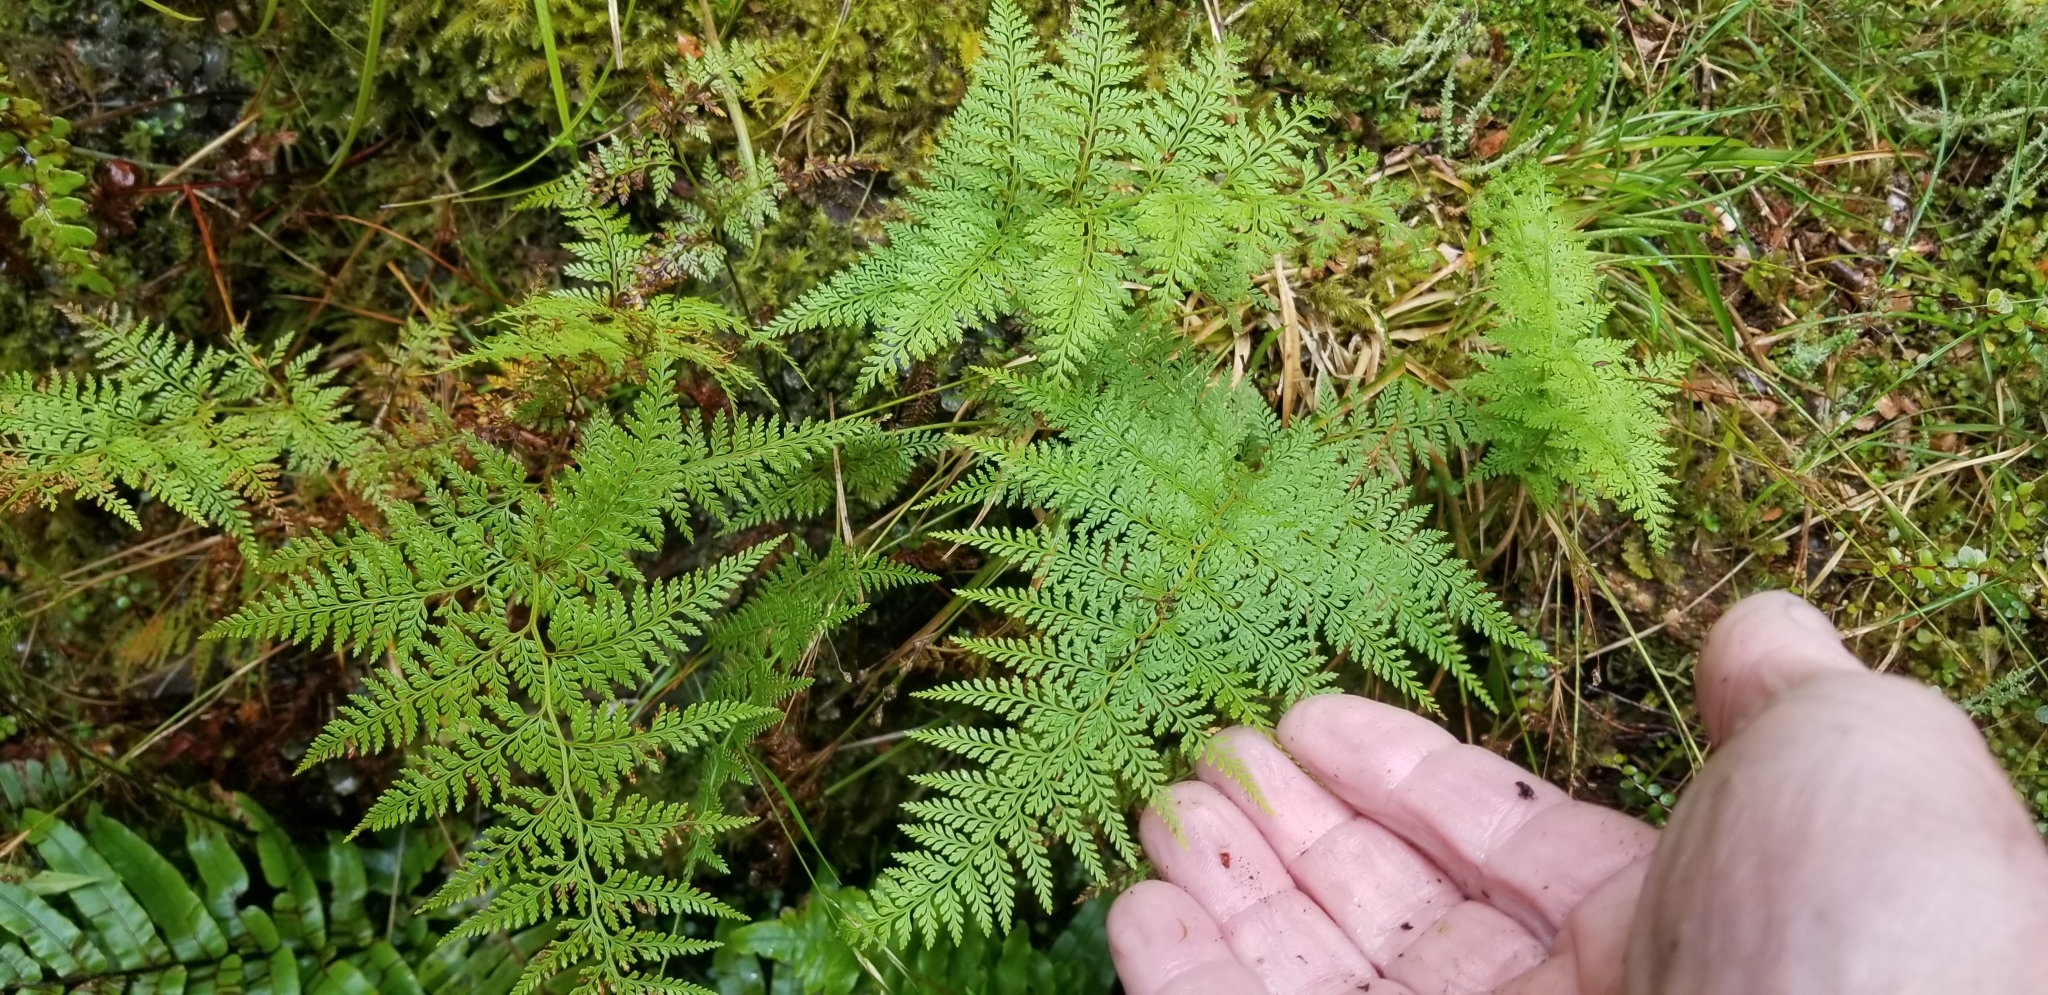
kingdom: Plantae
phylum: Tracheophyta
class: Polypodiopsida
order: Polypodiales
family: Dennstaedtiaceae
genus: Paesia
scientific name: Paesia scaberula
